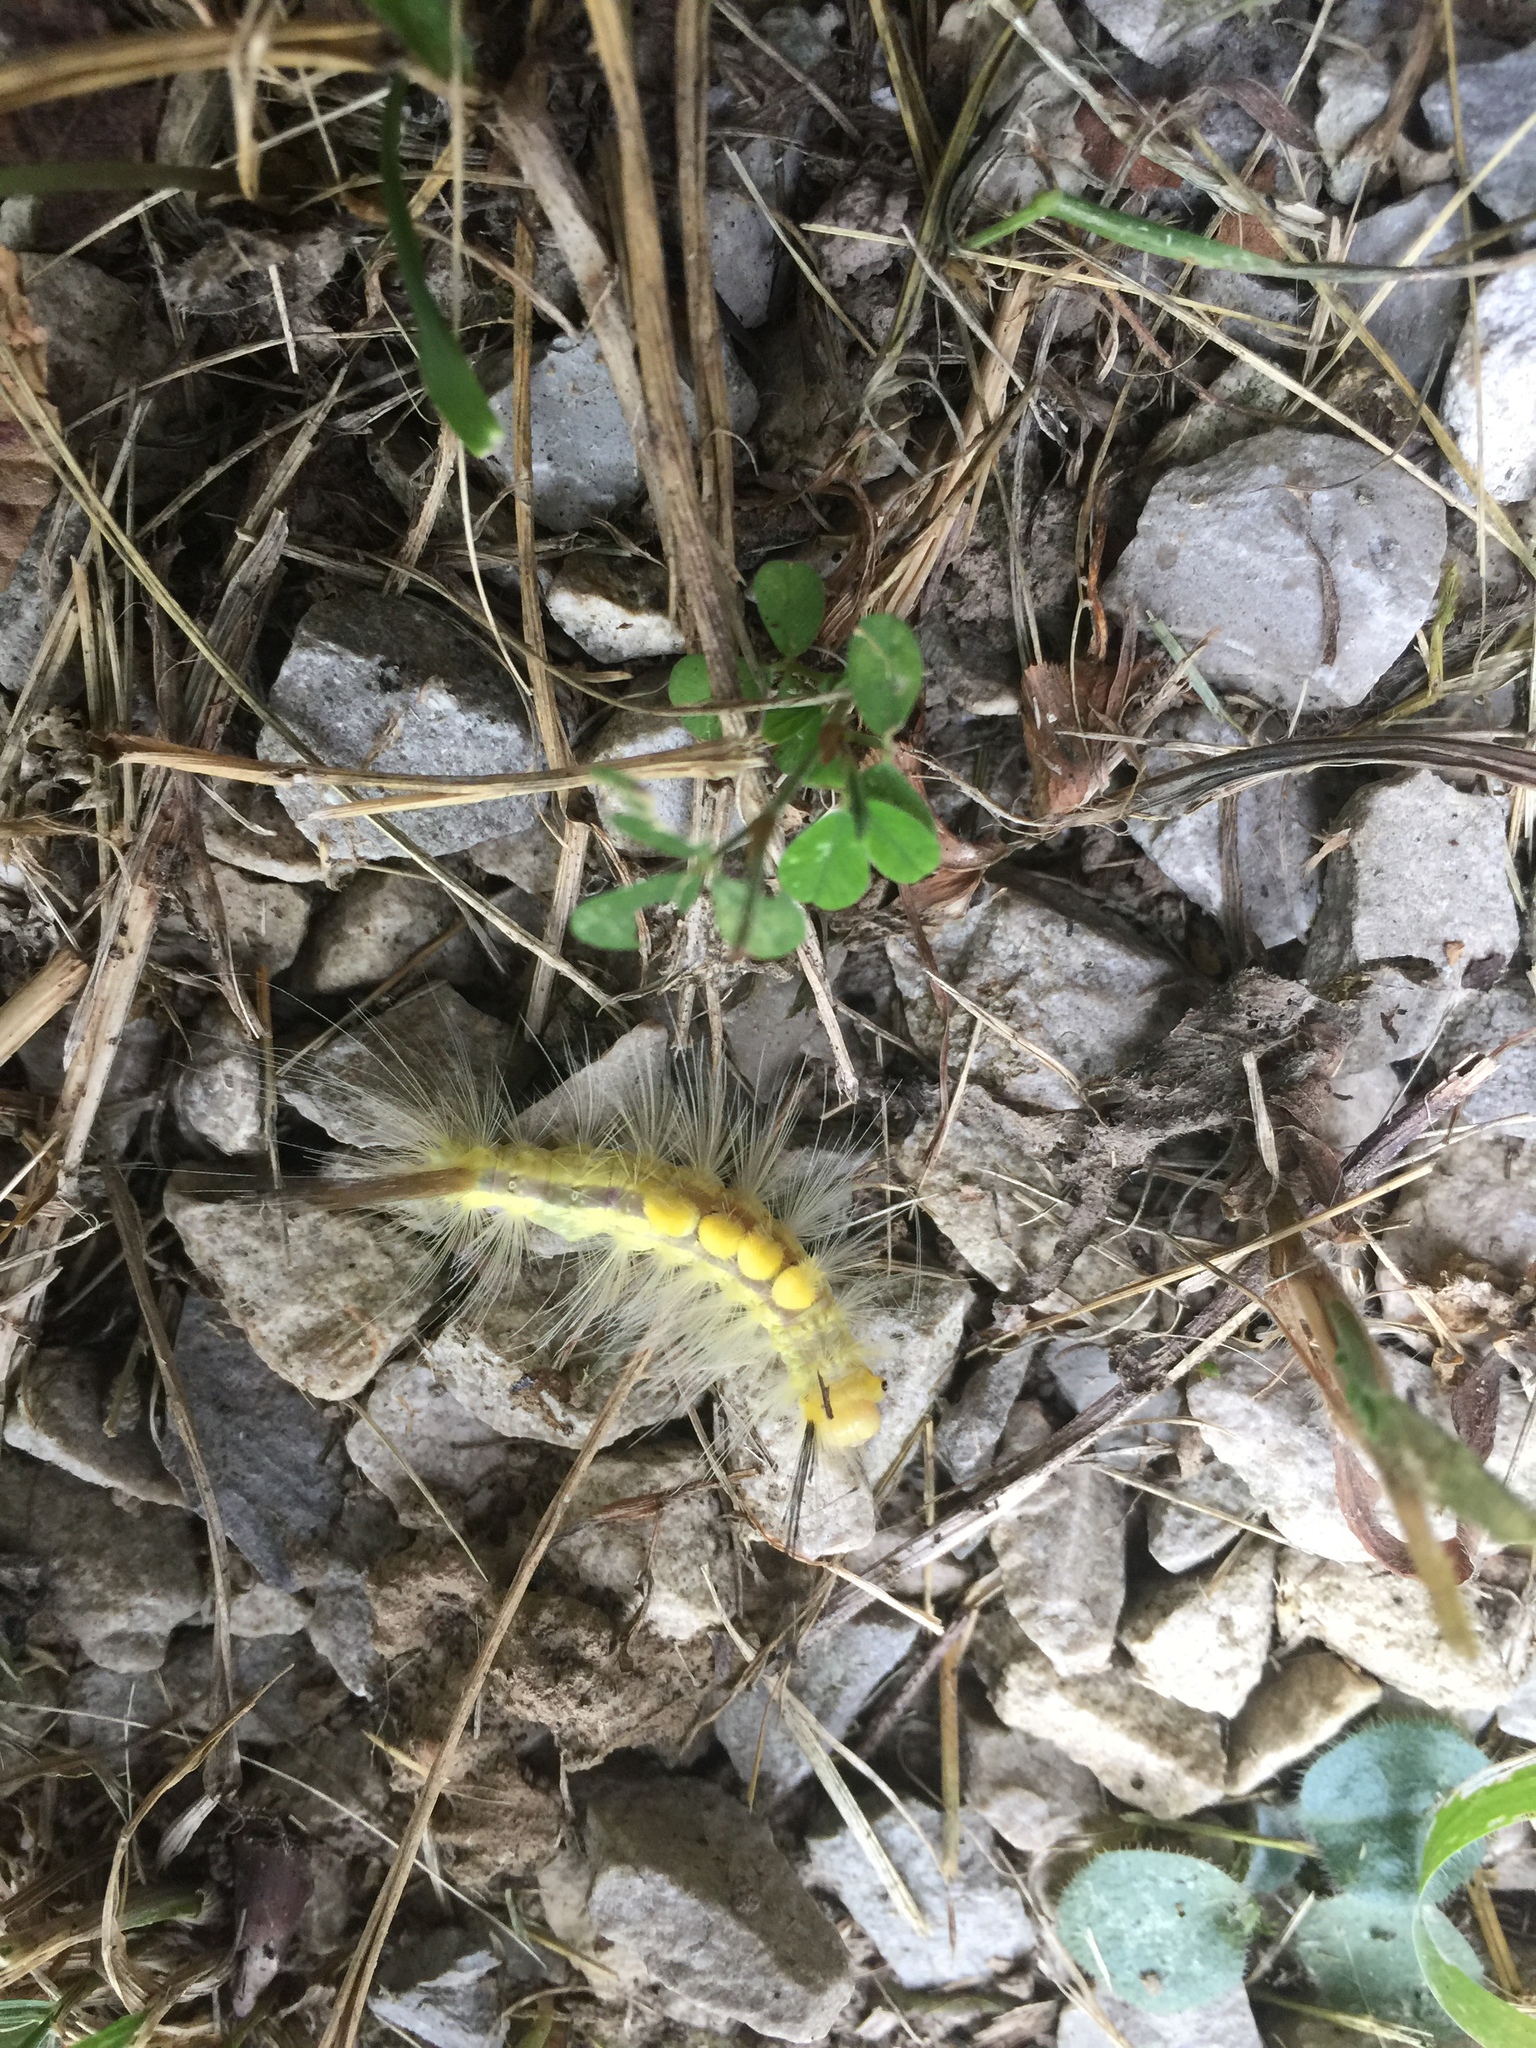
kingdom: Animalia
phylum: Arthropoda
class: Insecta
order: Lepidoptera
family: Erebidae
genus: Orgyia
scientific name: Orgyia definita
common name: Definite tussock moth
